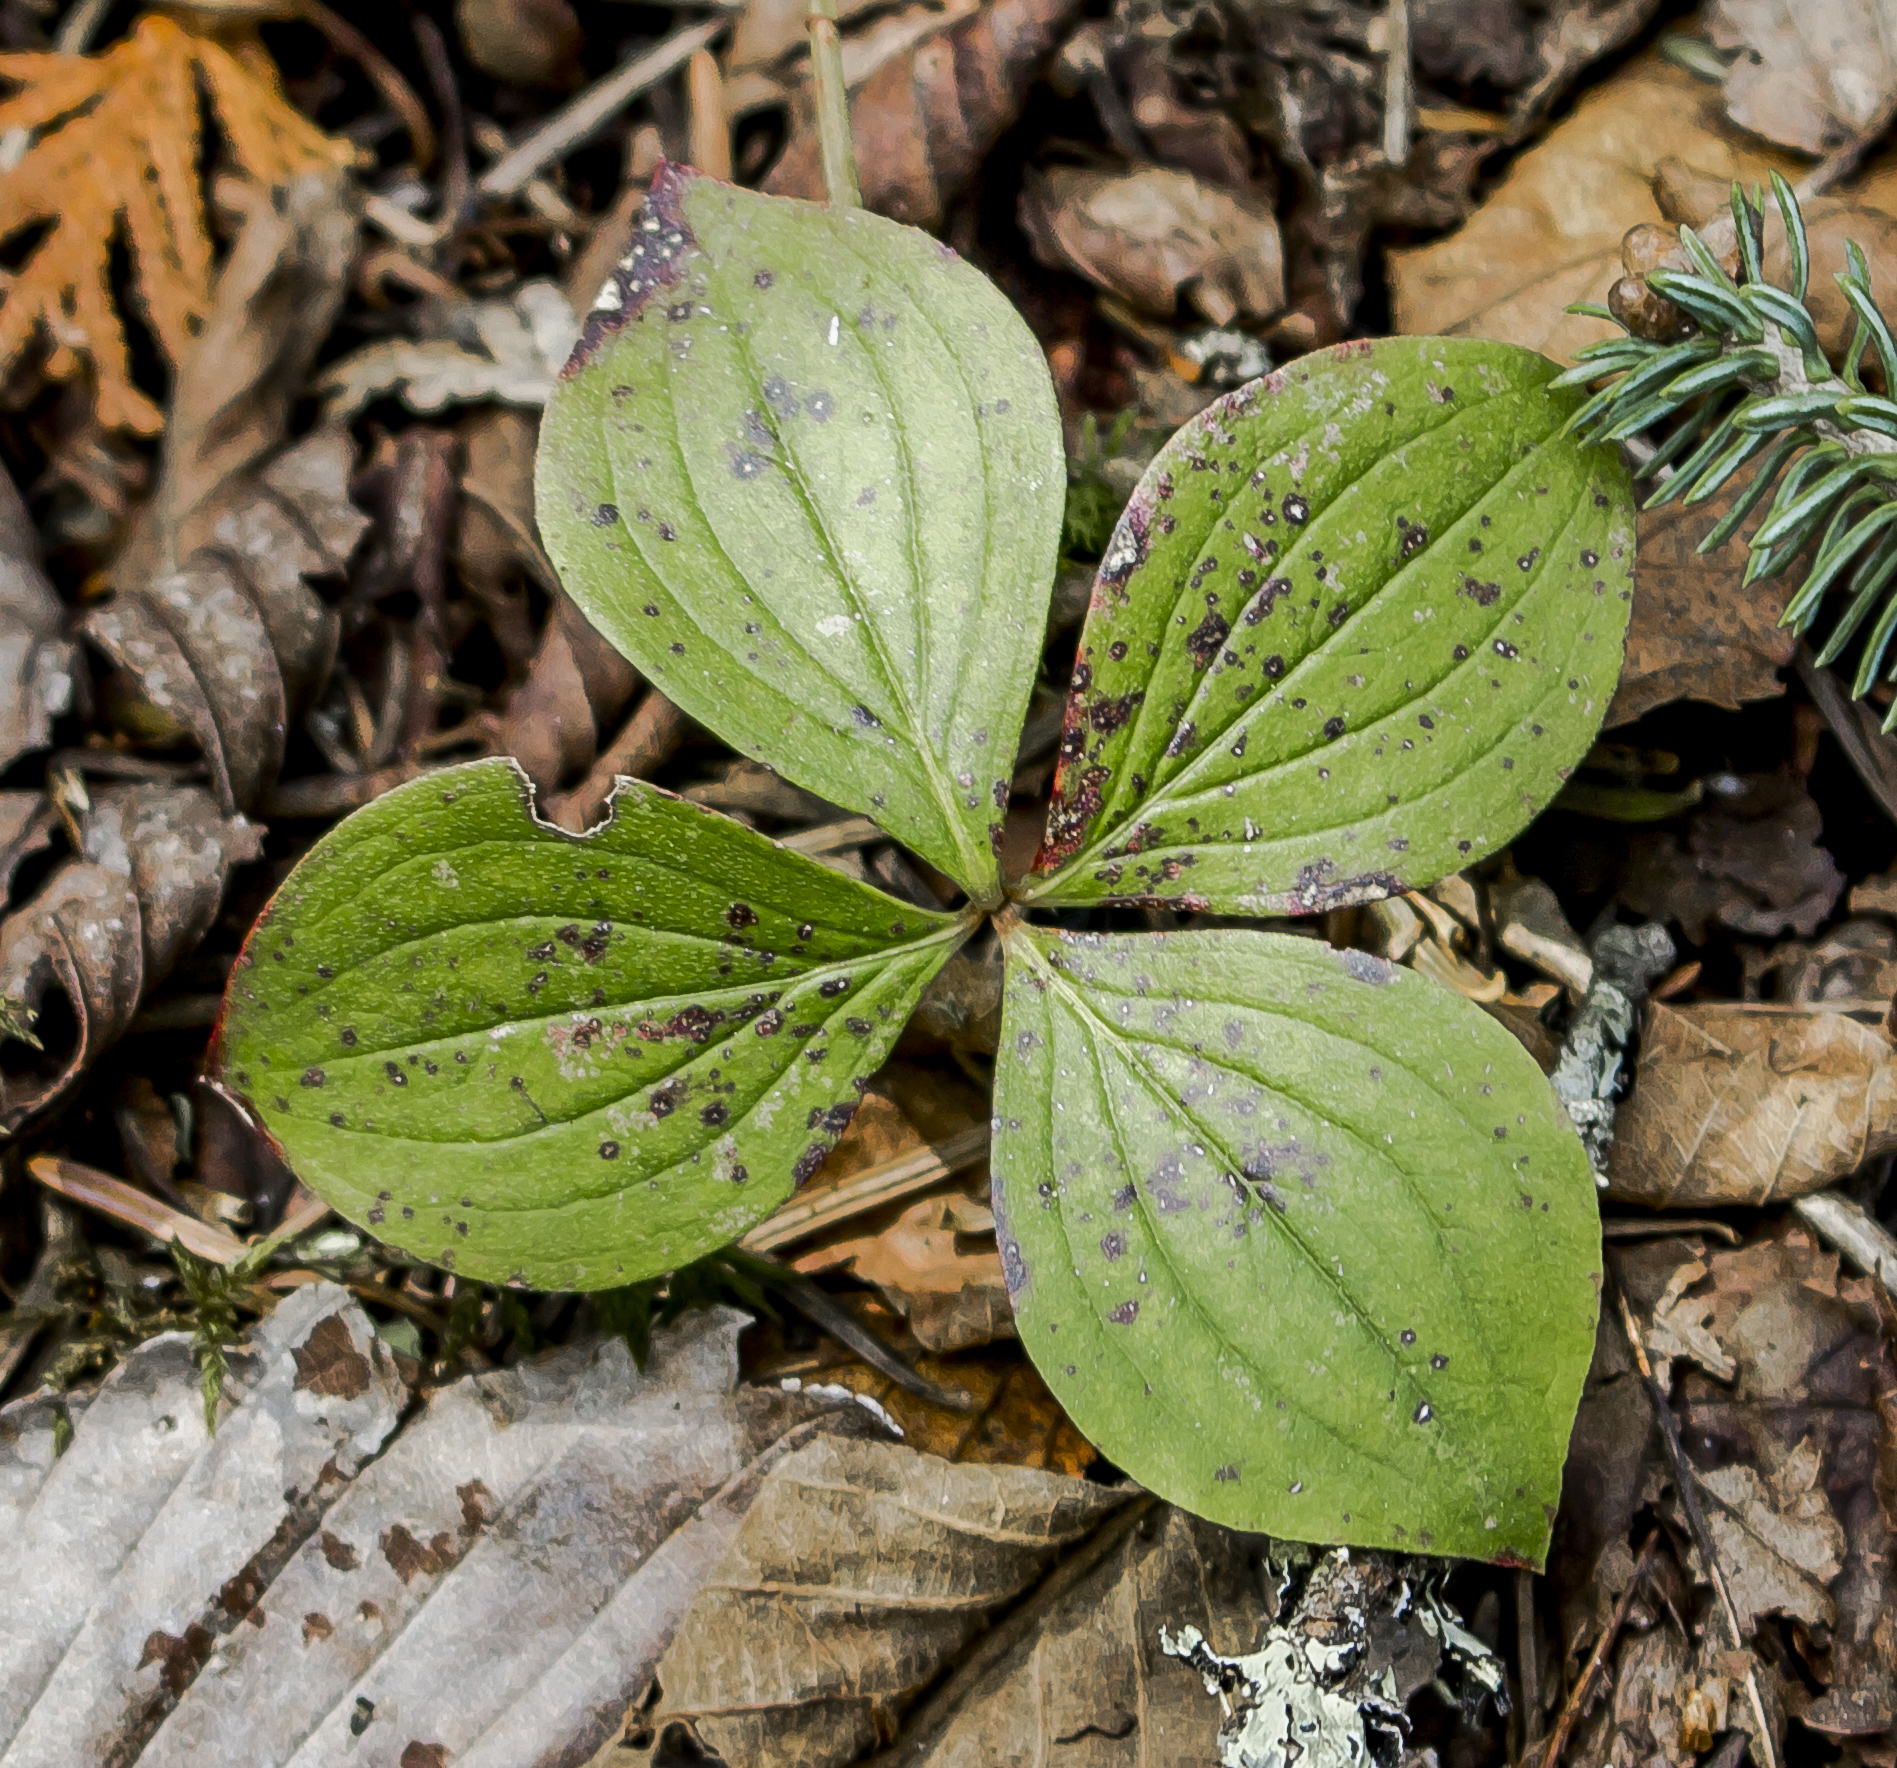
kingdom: Plantae
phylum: Tracheophyta
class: Magnoliopsida
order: Cornales
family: Cornaceae
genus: Cornus
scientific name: Cornus canadensis
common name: Creeping dogwood
